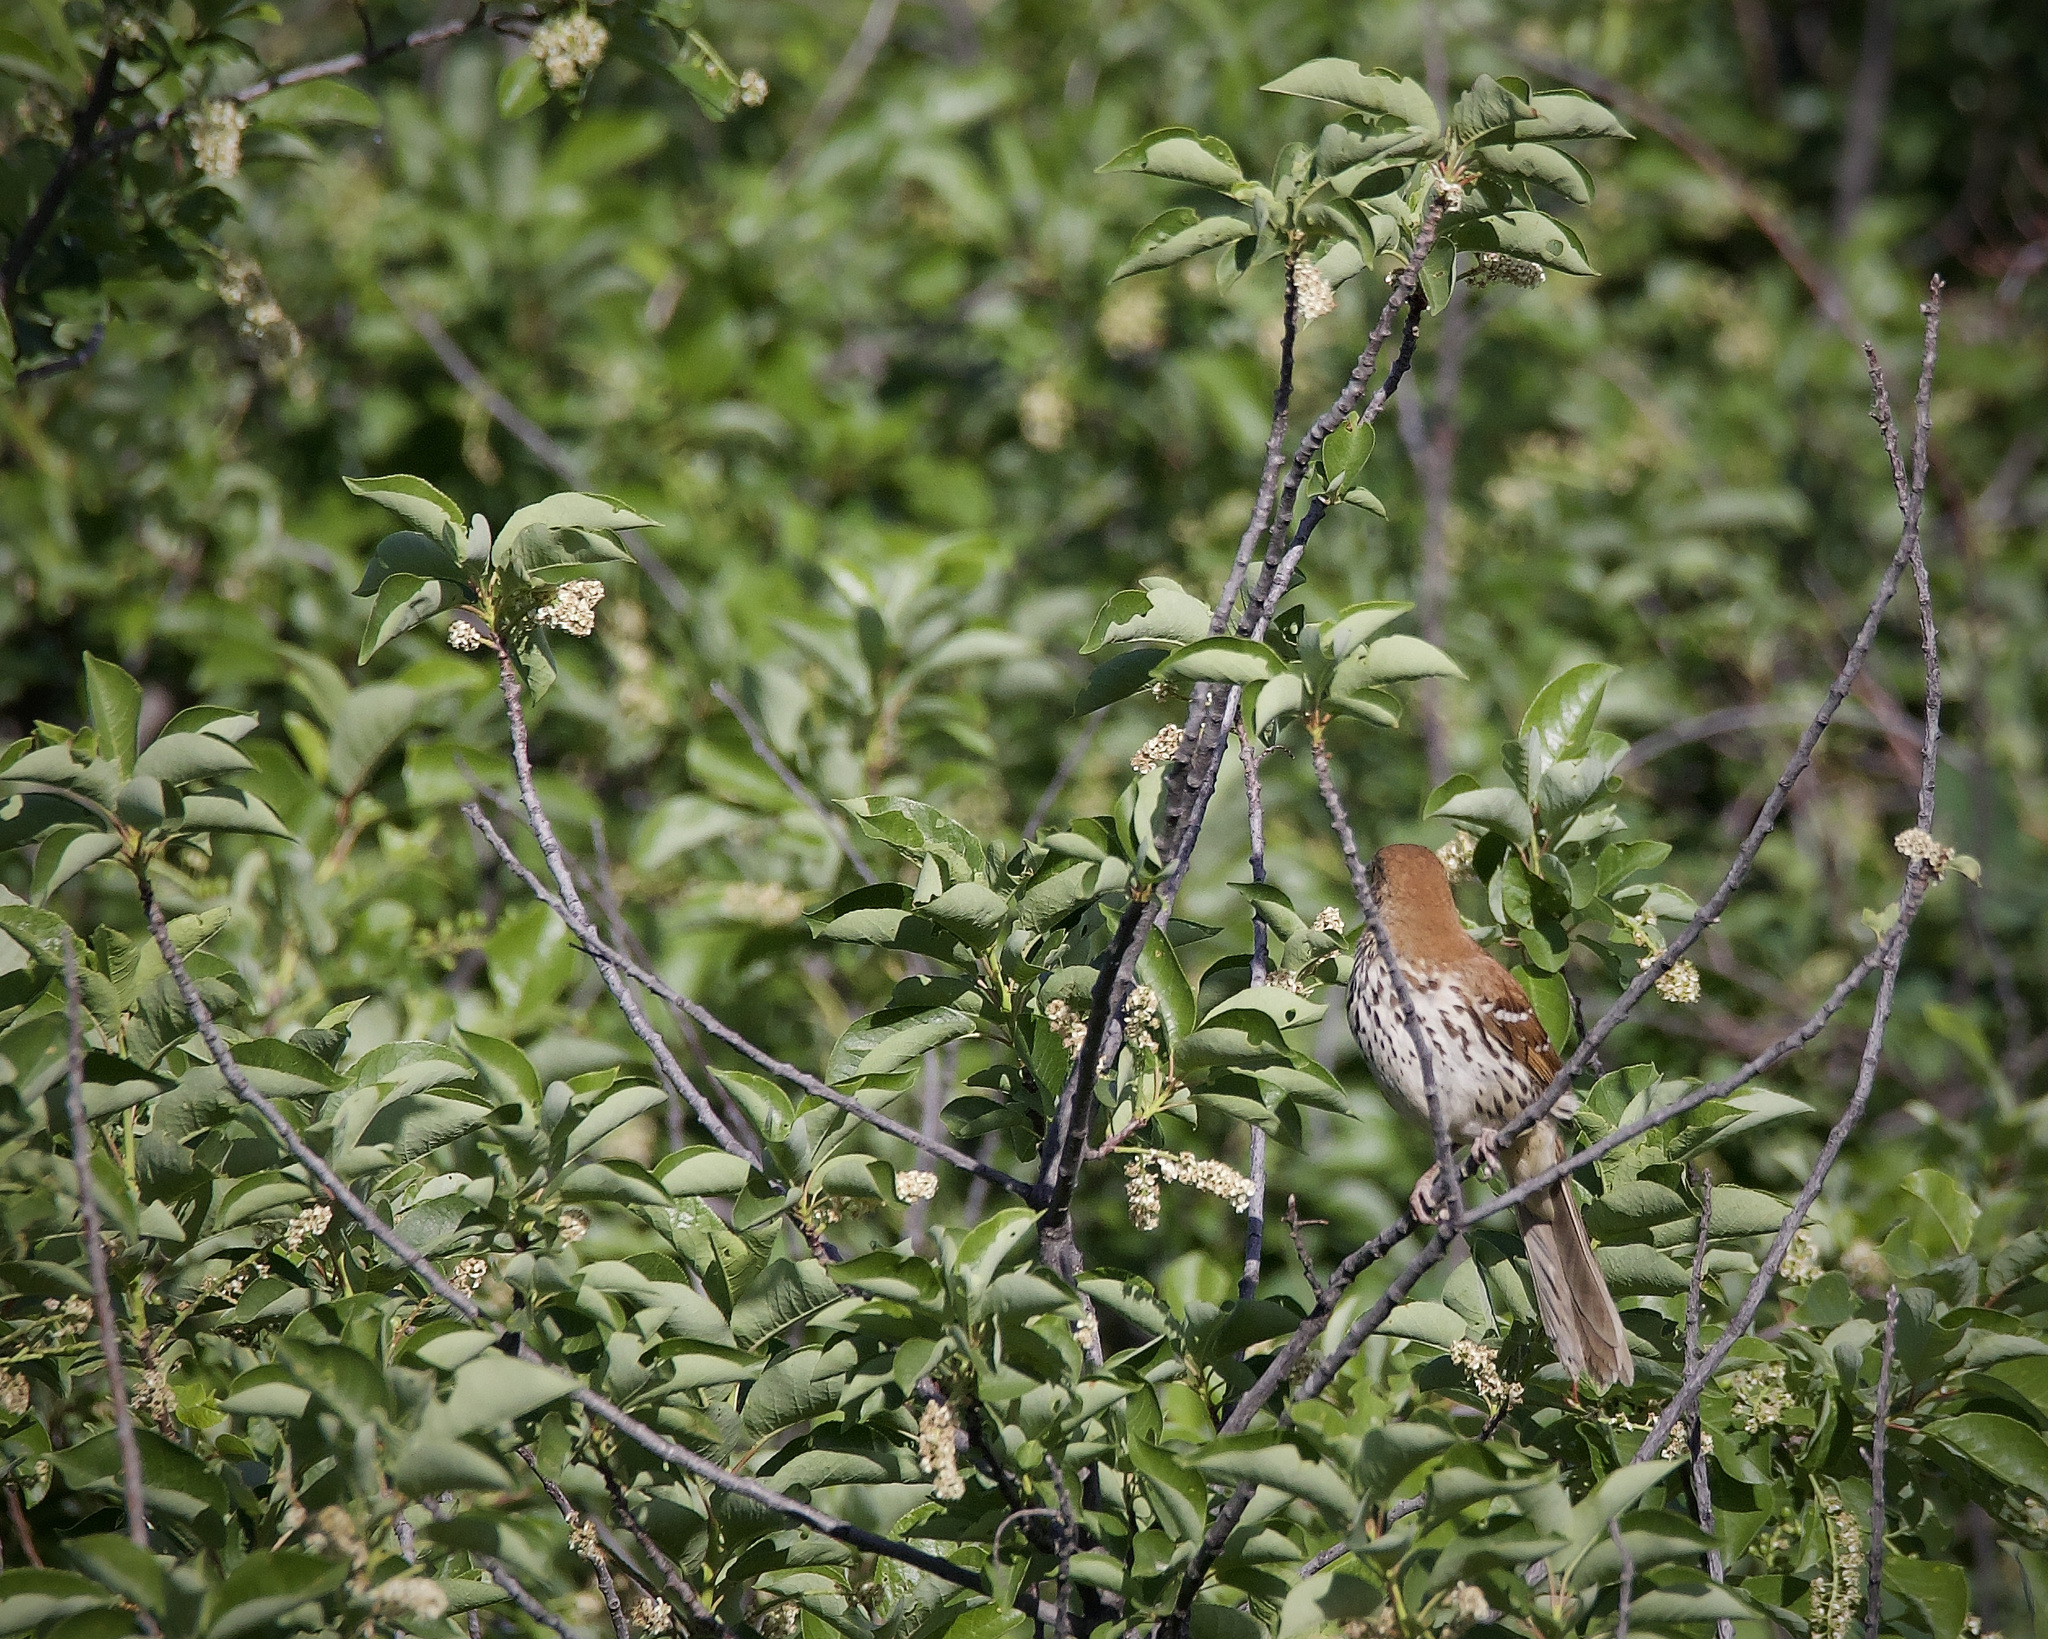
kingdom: Animalia
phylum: Chordata
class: Aves
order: Passeriformes
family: Mimidae
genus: Toxostoma
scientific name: Toxostoma rufum
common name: Brown thrasher
